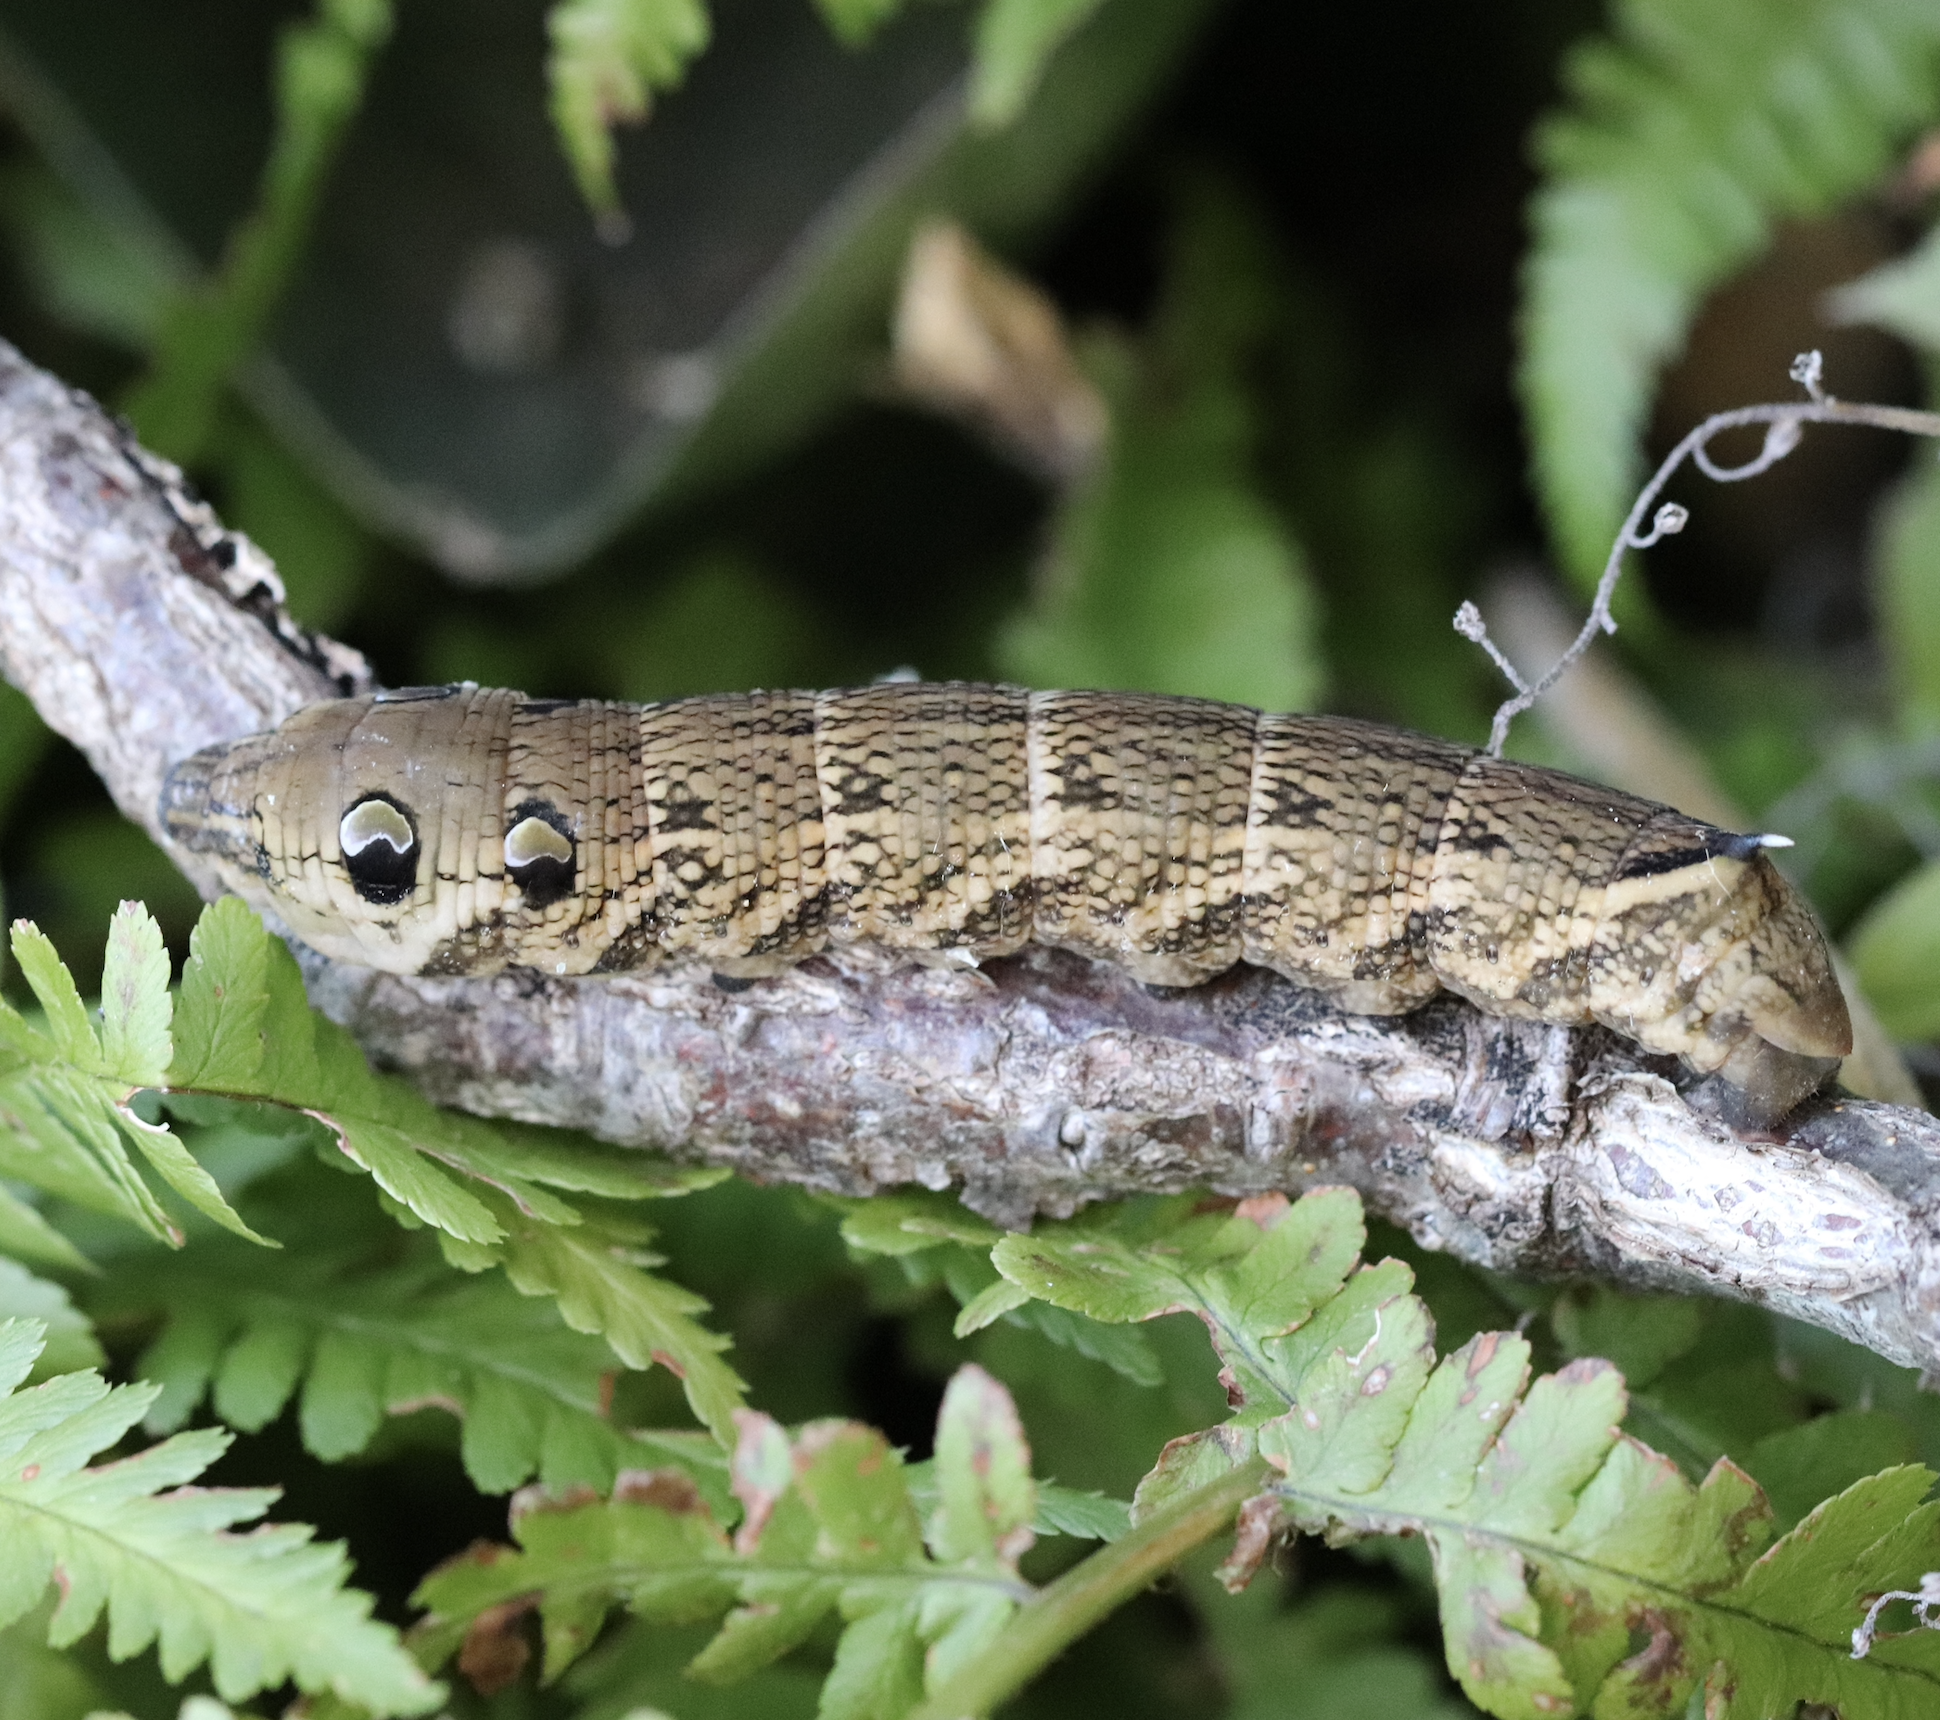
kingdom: Animalia
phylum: Arthropoda
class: Insecta
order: Lepidoptera
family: Sphingidae
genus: Deilephila
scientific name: Deilephila elpenor
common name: Elephant hawk-moth
